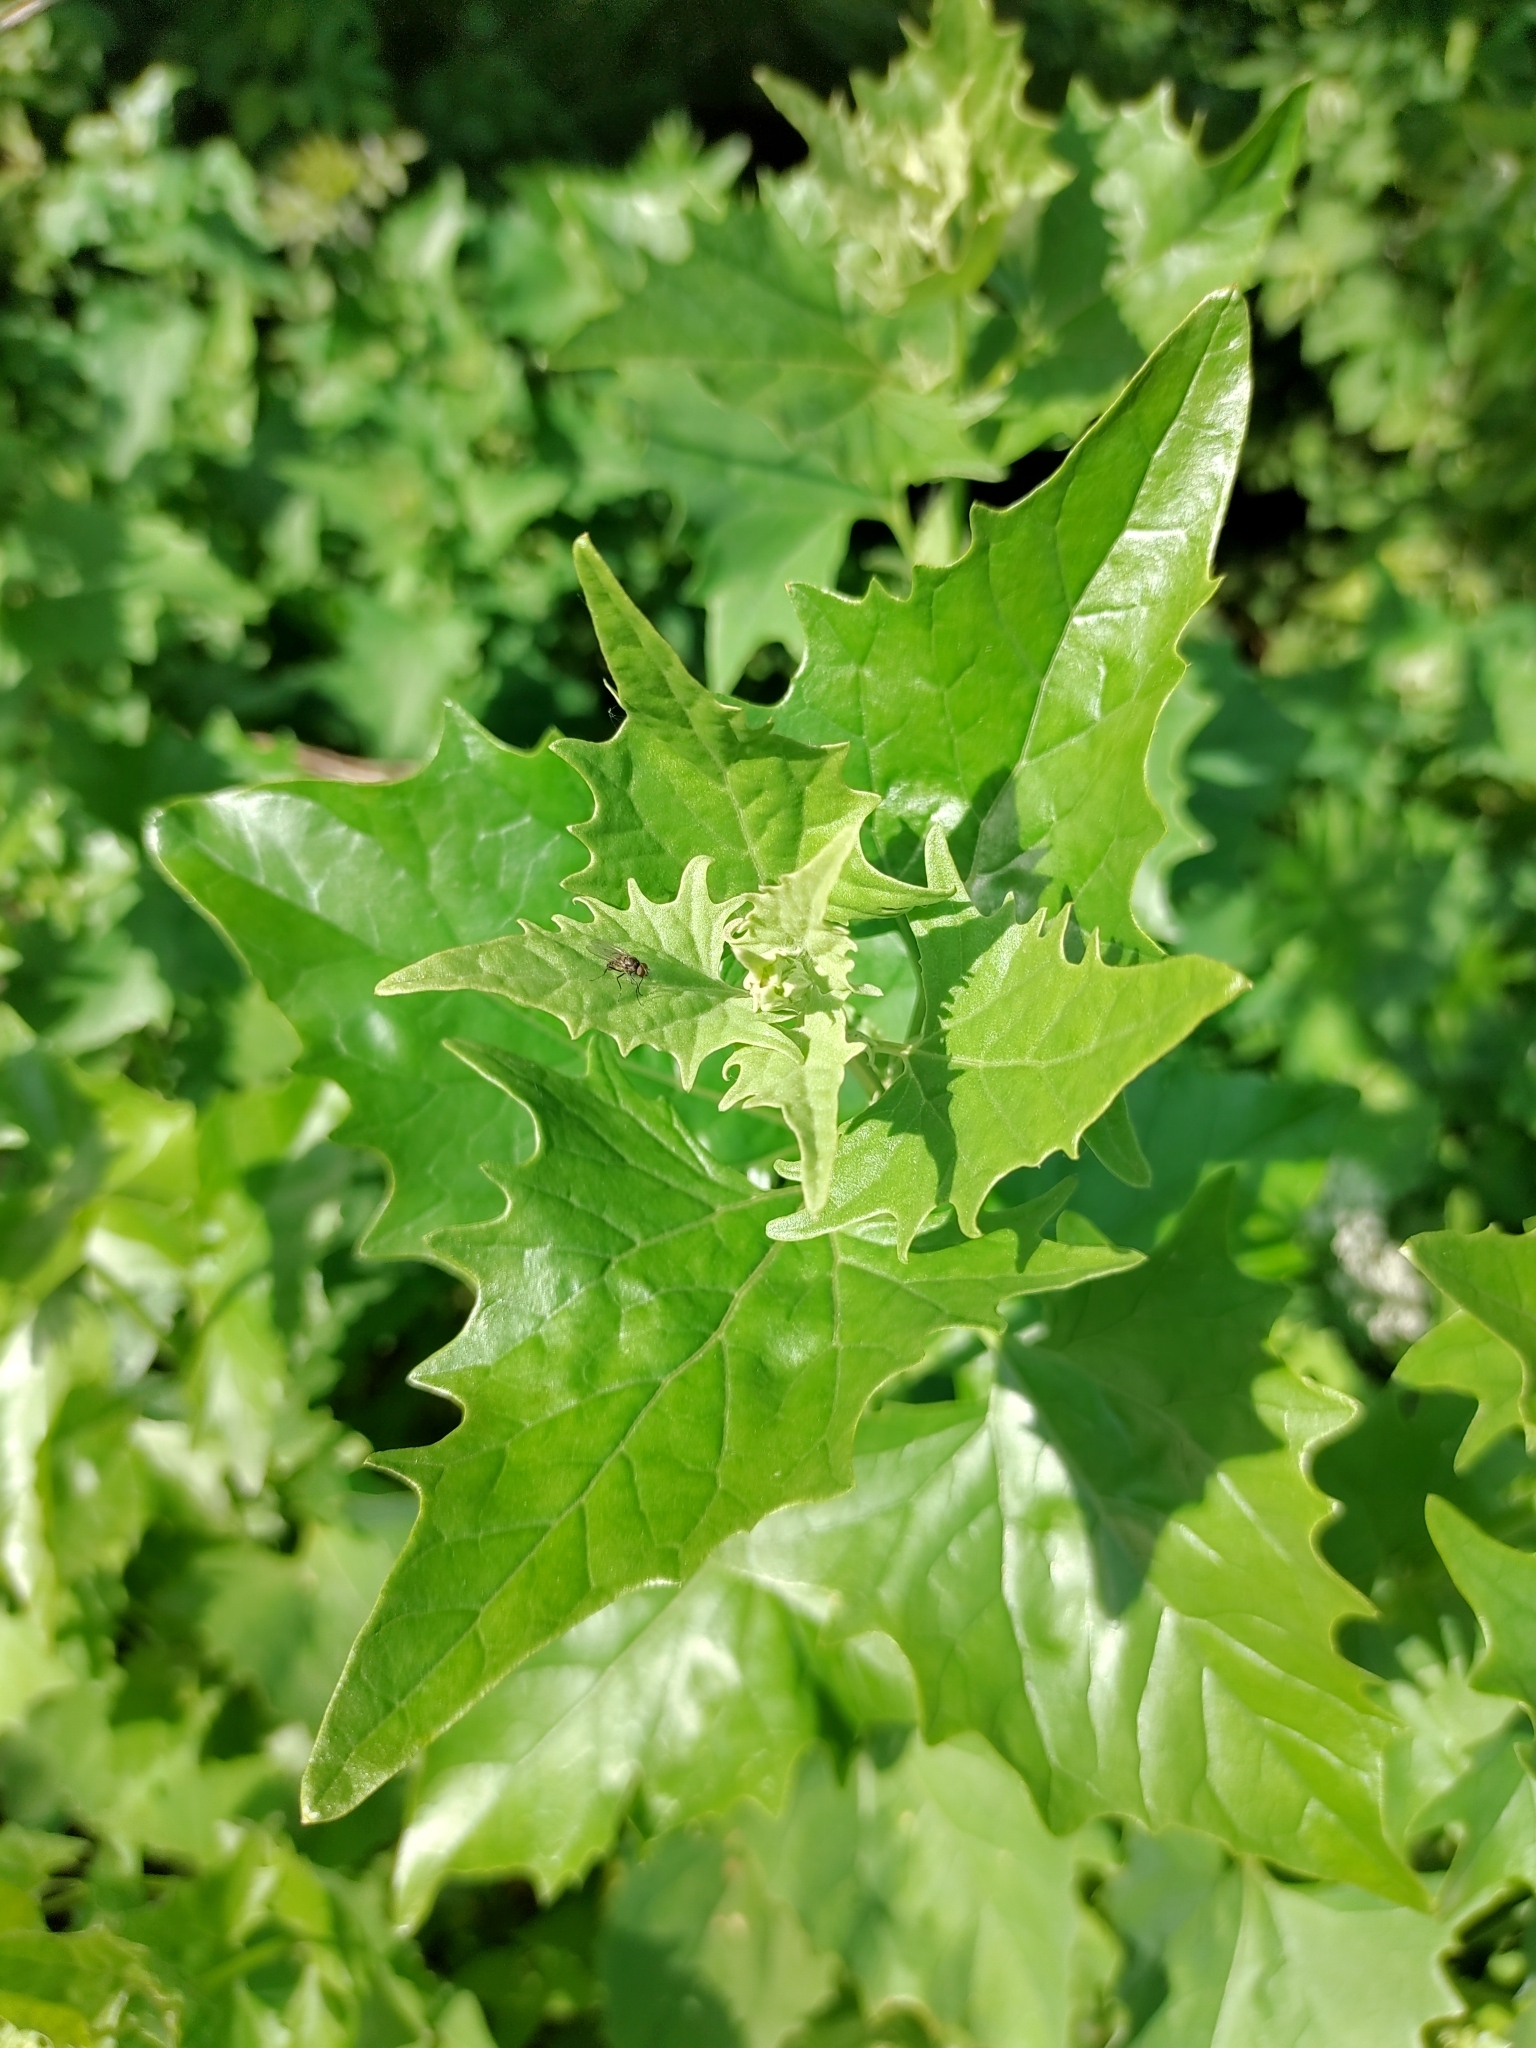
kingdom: Plantae
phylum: Tracheophyta
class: Magnoliopsida
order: Caryophyllales
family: Amaranthaceae
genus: Atriplex
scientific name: Atriplex sagittata
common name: Purple orache
